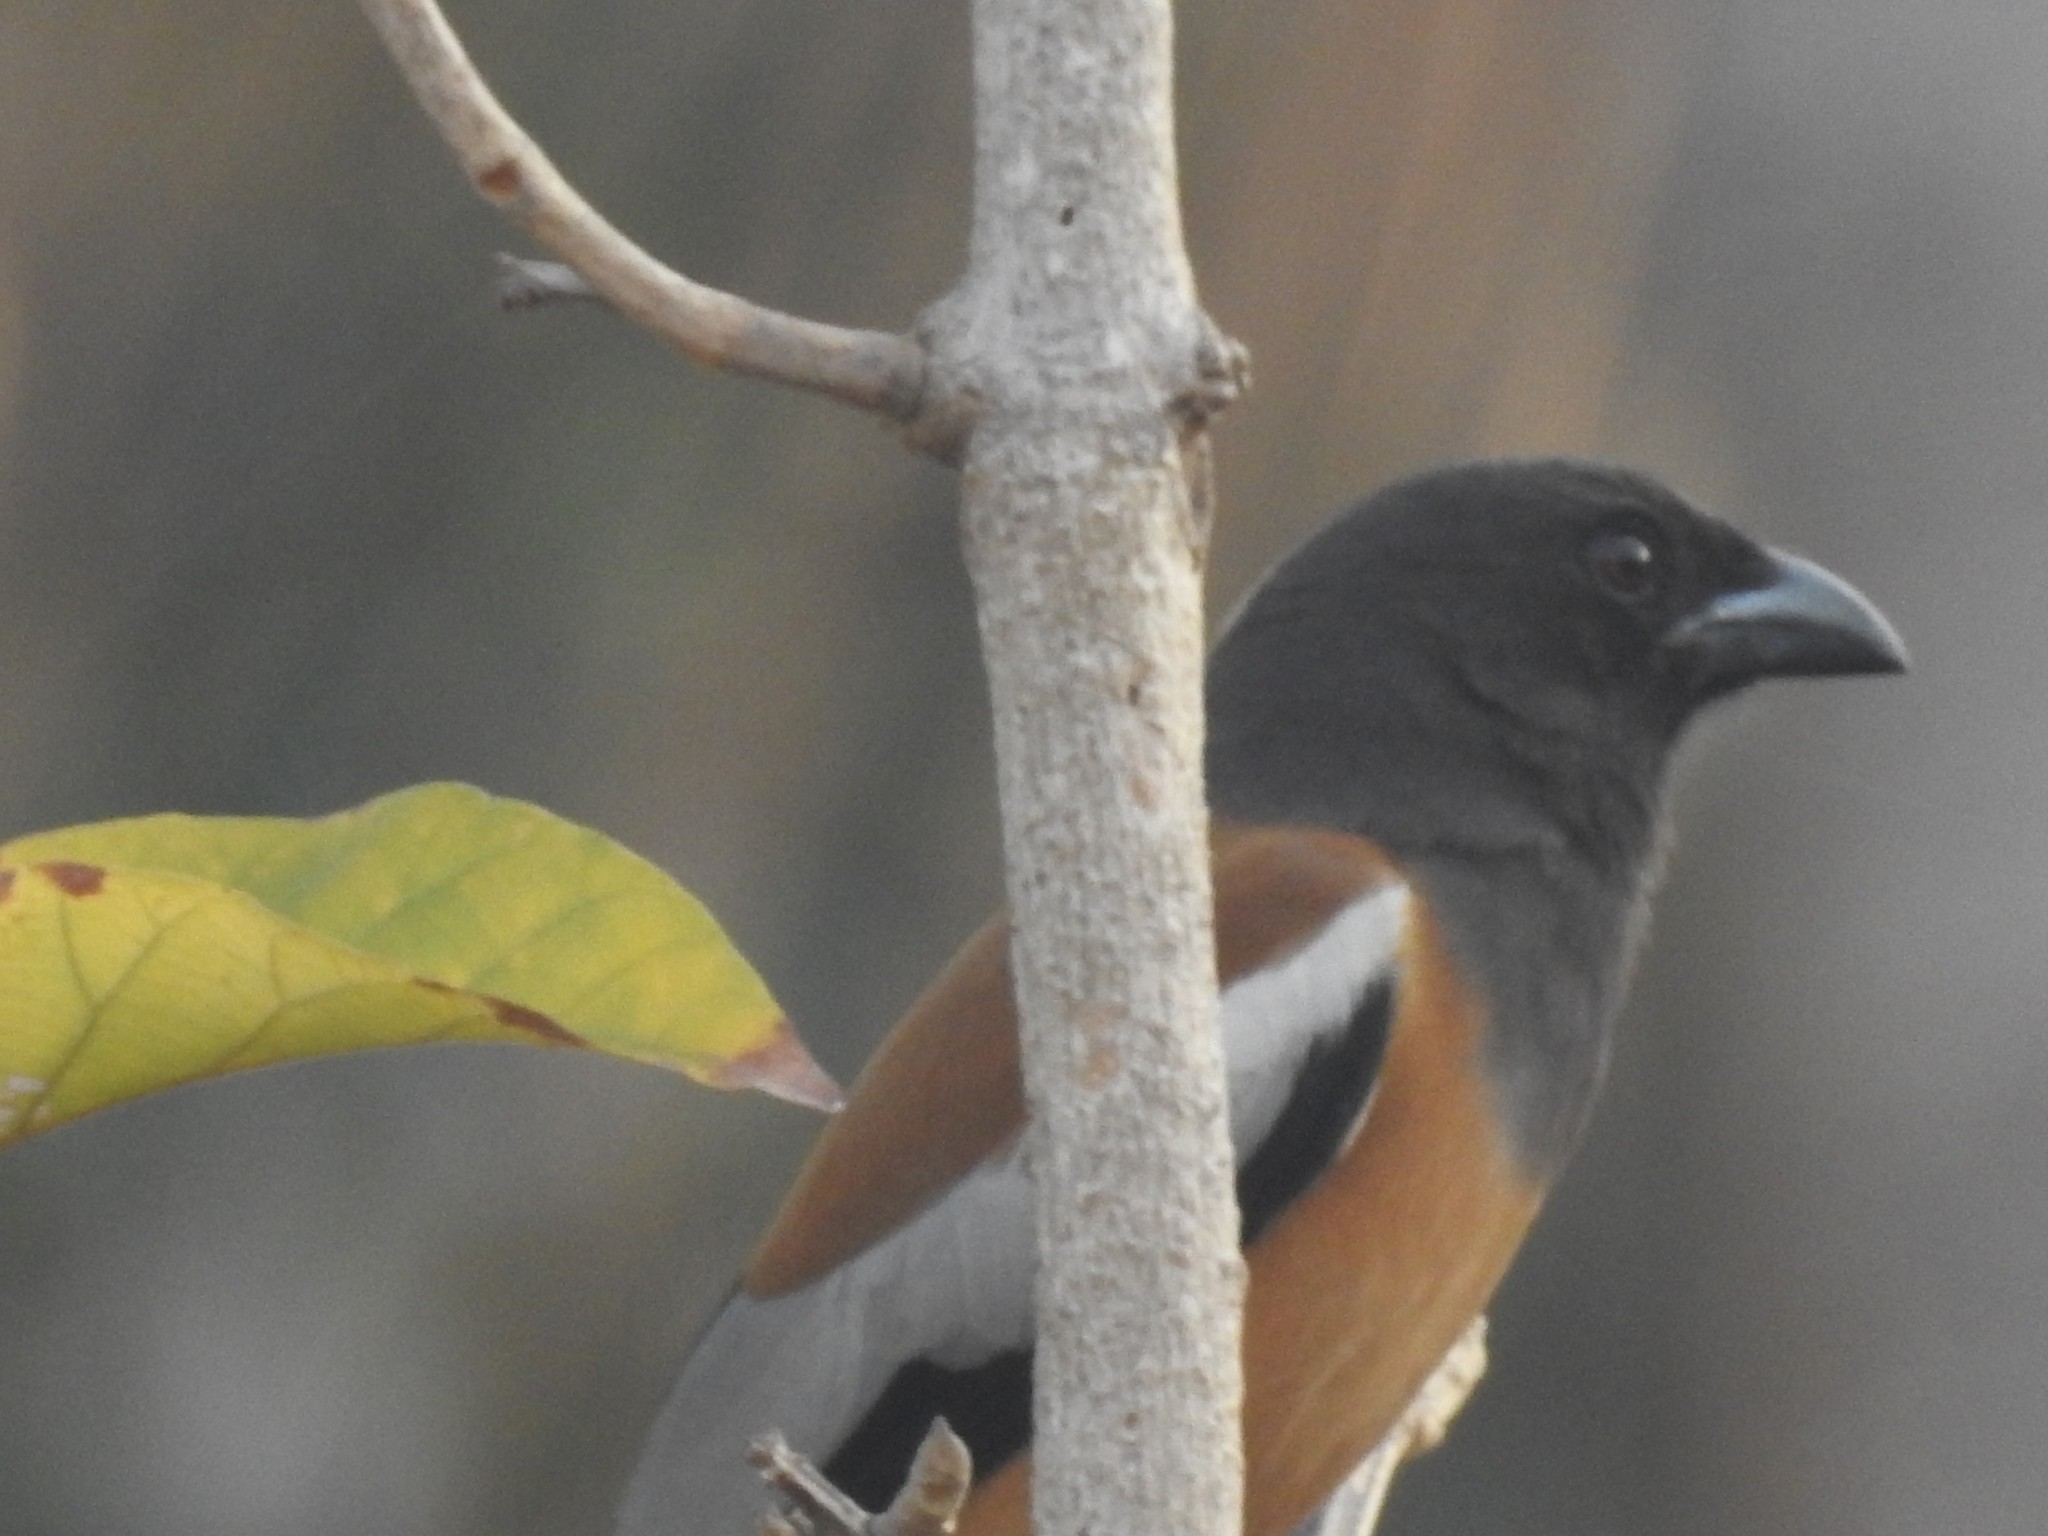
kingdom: Animalia
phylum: Chordata
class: Aves
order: Passeriformes
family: Corvidae
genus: Dendrocitta
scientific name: Dendrocitta vagabunda
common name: Rufous treepie
